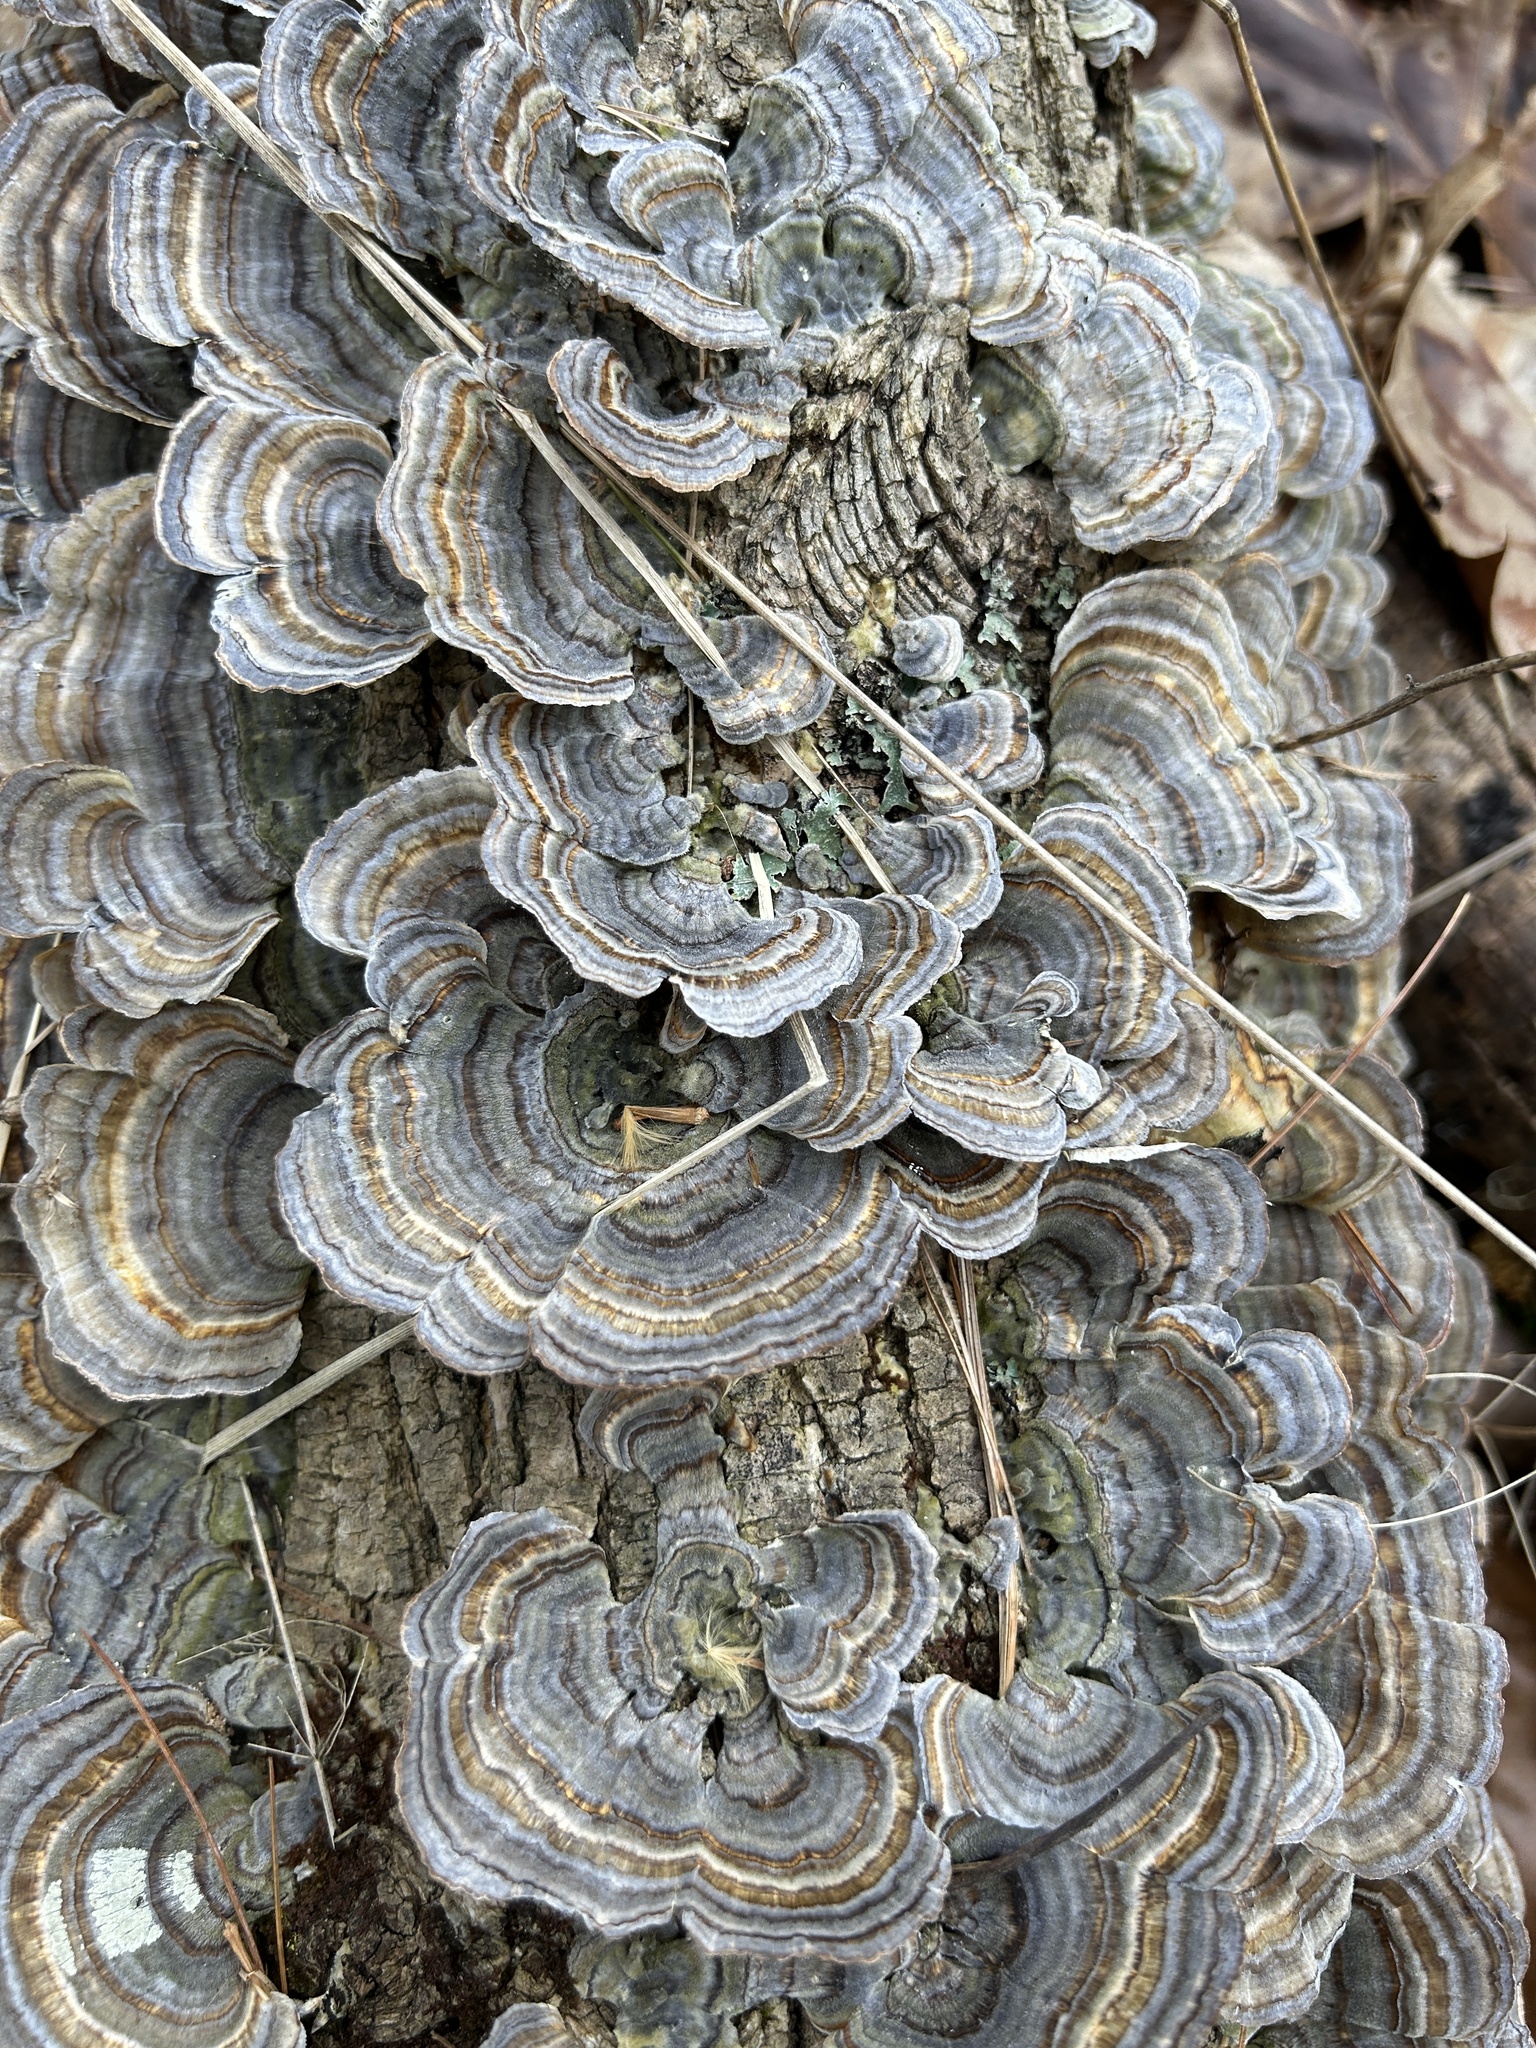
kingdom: Fungi
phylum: Basidiomycota
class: Agaricomycetes
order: Polyporales
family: Polyporaceae
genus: Trametes
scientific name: Trametes versicolor
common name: Turkeytail
